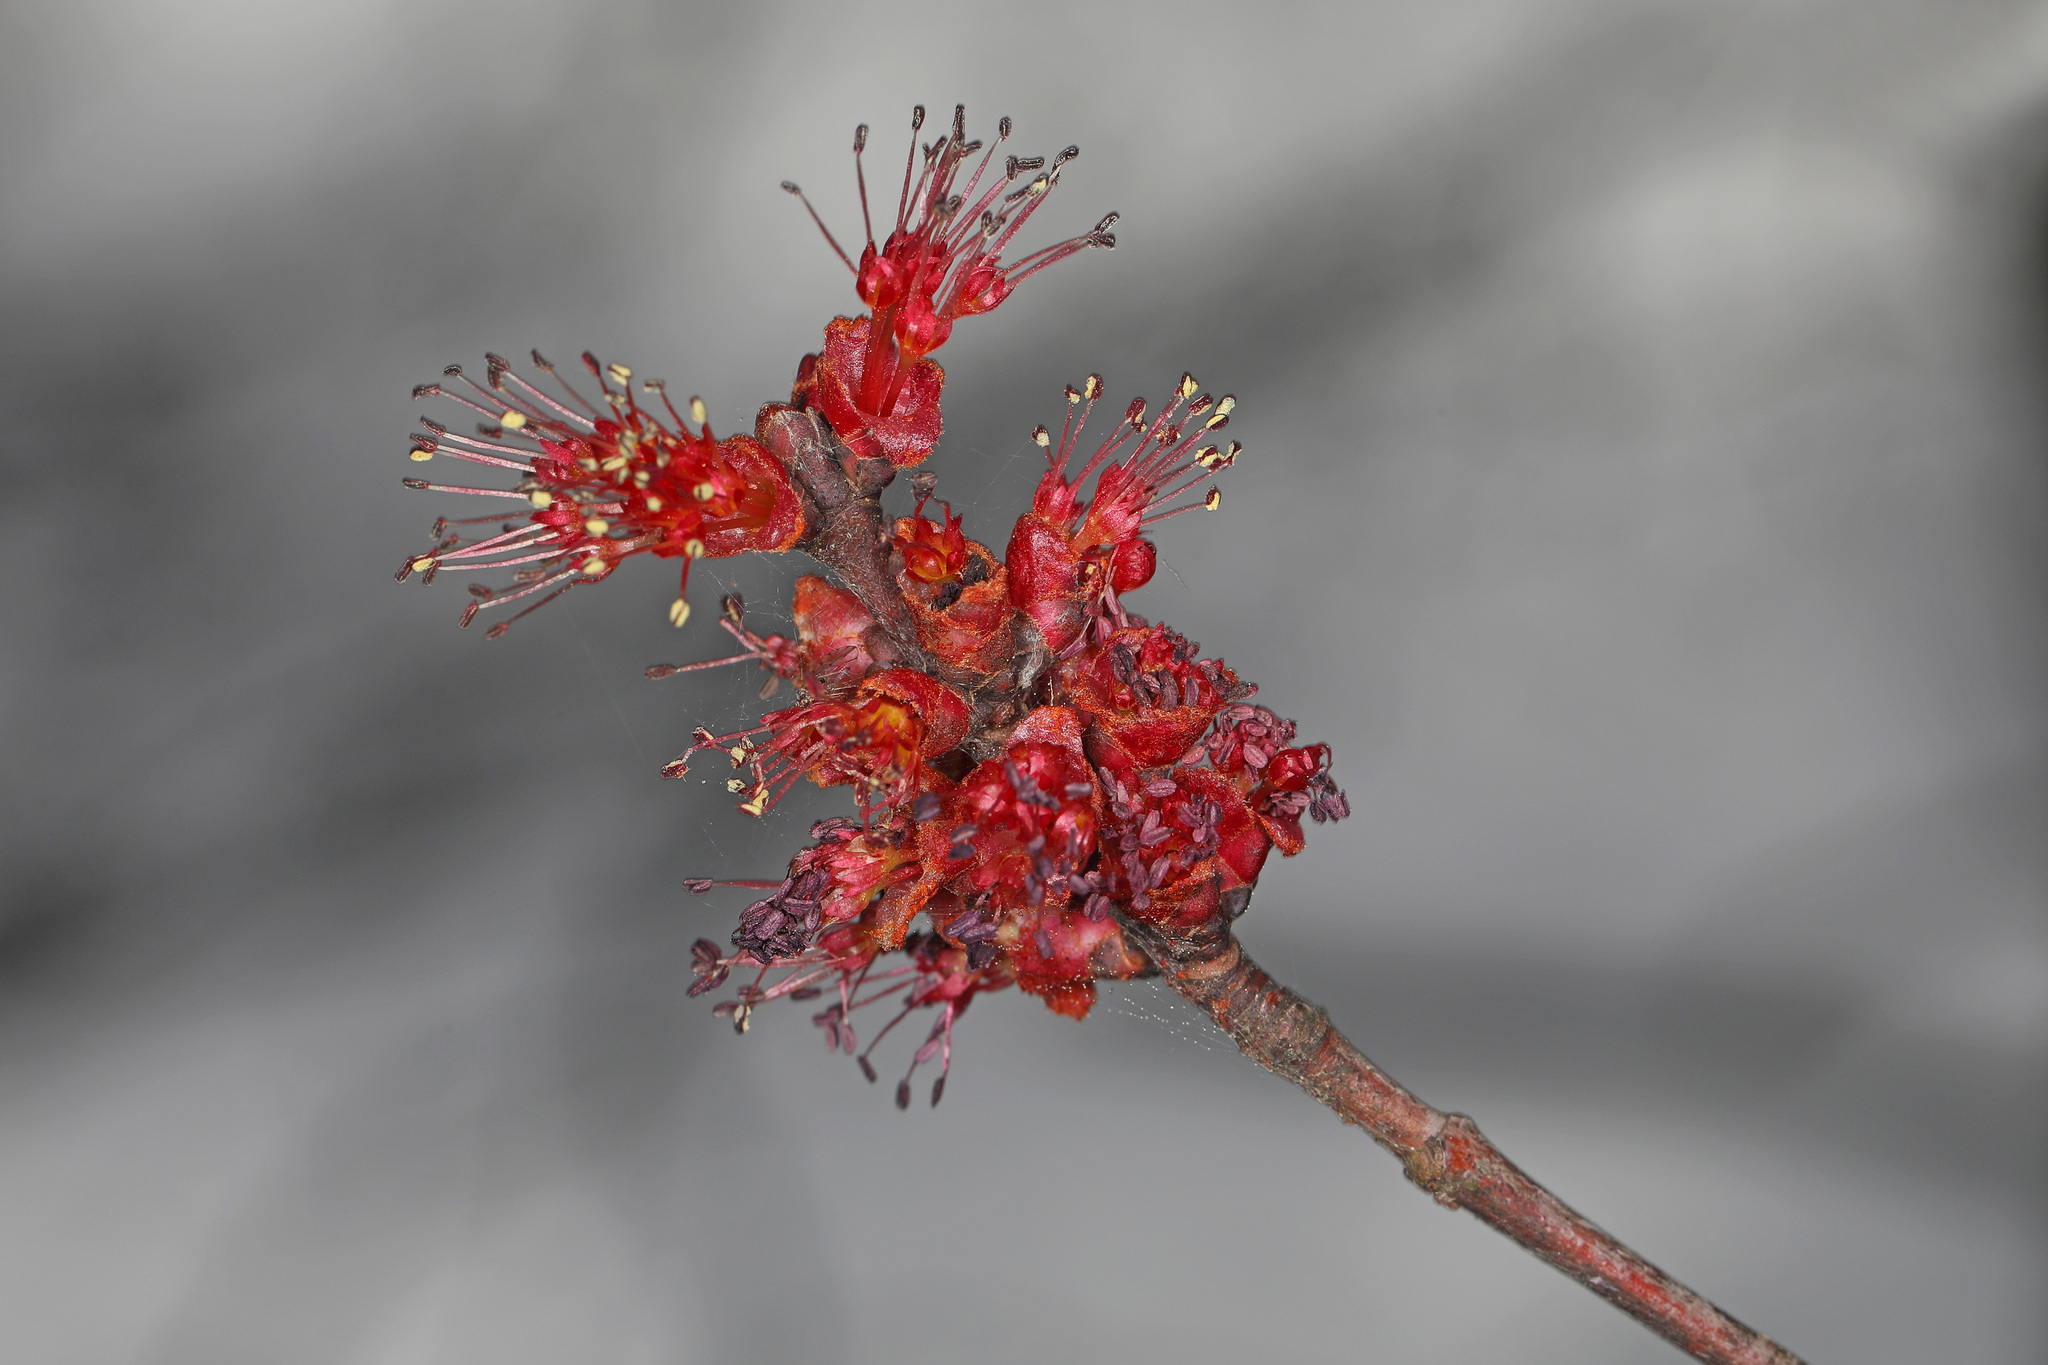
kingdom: Plantae
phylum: Tracheophyta
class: Magnoliopsida
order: Sapindales
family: Sapindaceae
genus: Acer
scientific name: Acer rubrum
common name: Red maple
